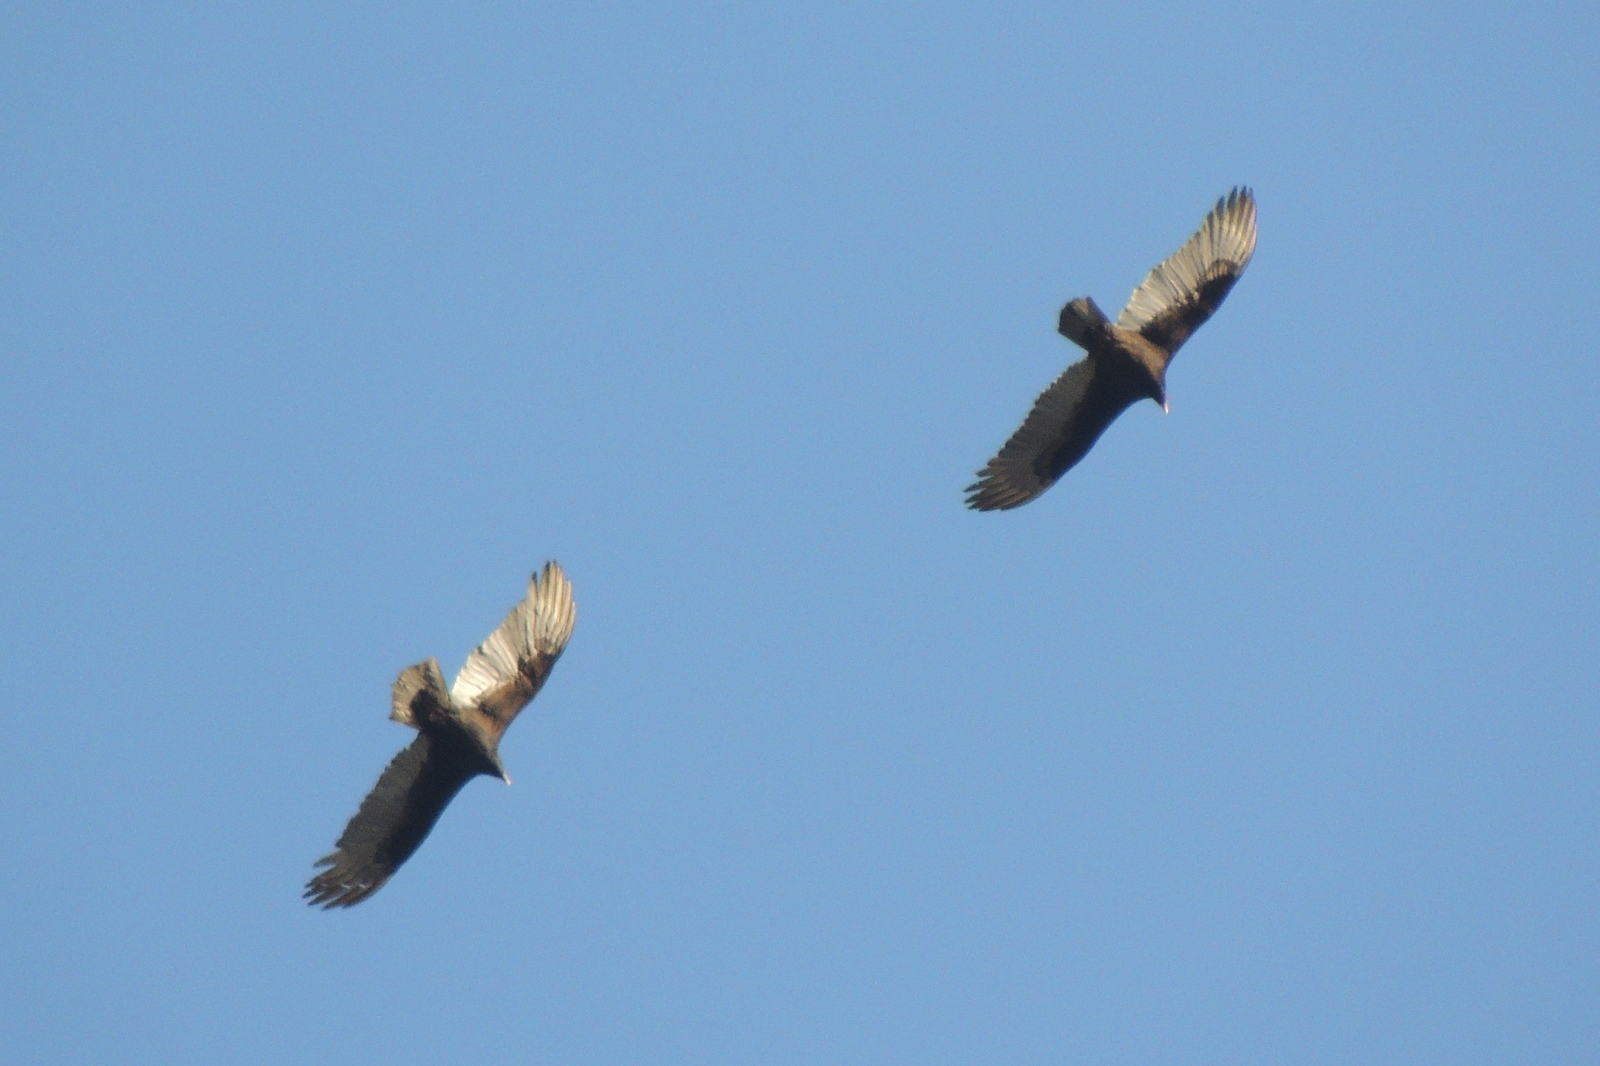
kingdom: Animalia
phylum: Chordata
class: Aves
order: Accipitriformes
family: Cathartidae
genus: Cathartes
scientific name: Cathartes aura
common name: Turkey vulture
